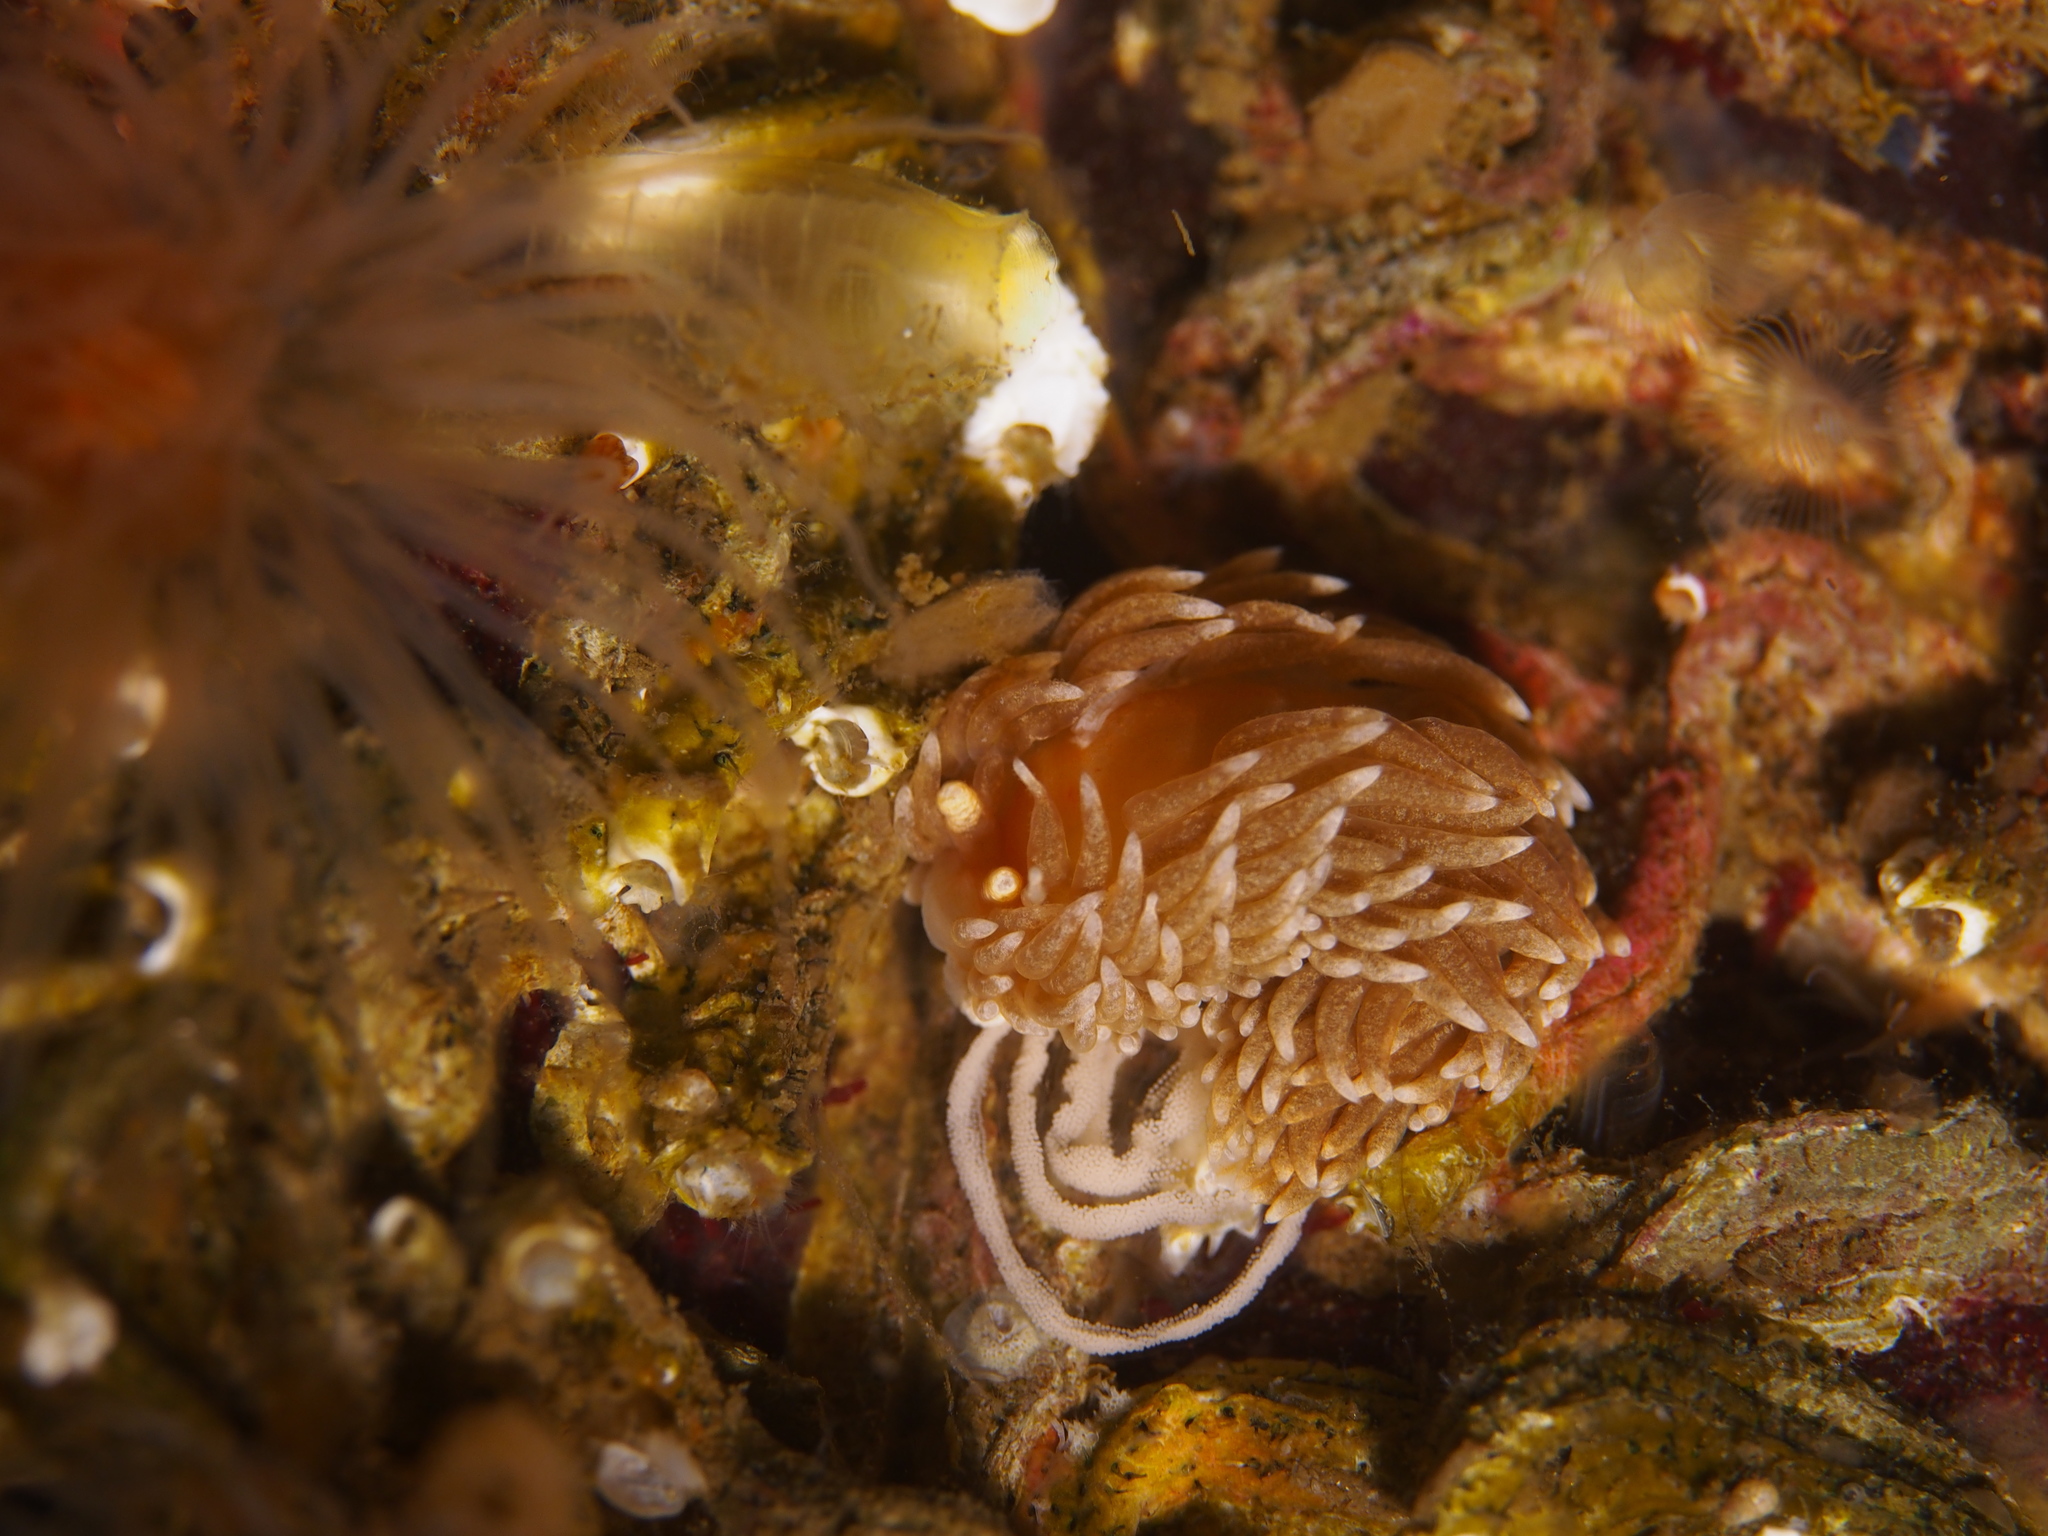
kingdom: Animalia
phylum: Mollusca
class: Gastropoda
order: Nudibranchia
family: Aeolidiidae
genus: Aeolidiella
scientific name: Aeolidiella glauca
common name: Orange-brown aeolid
